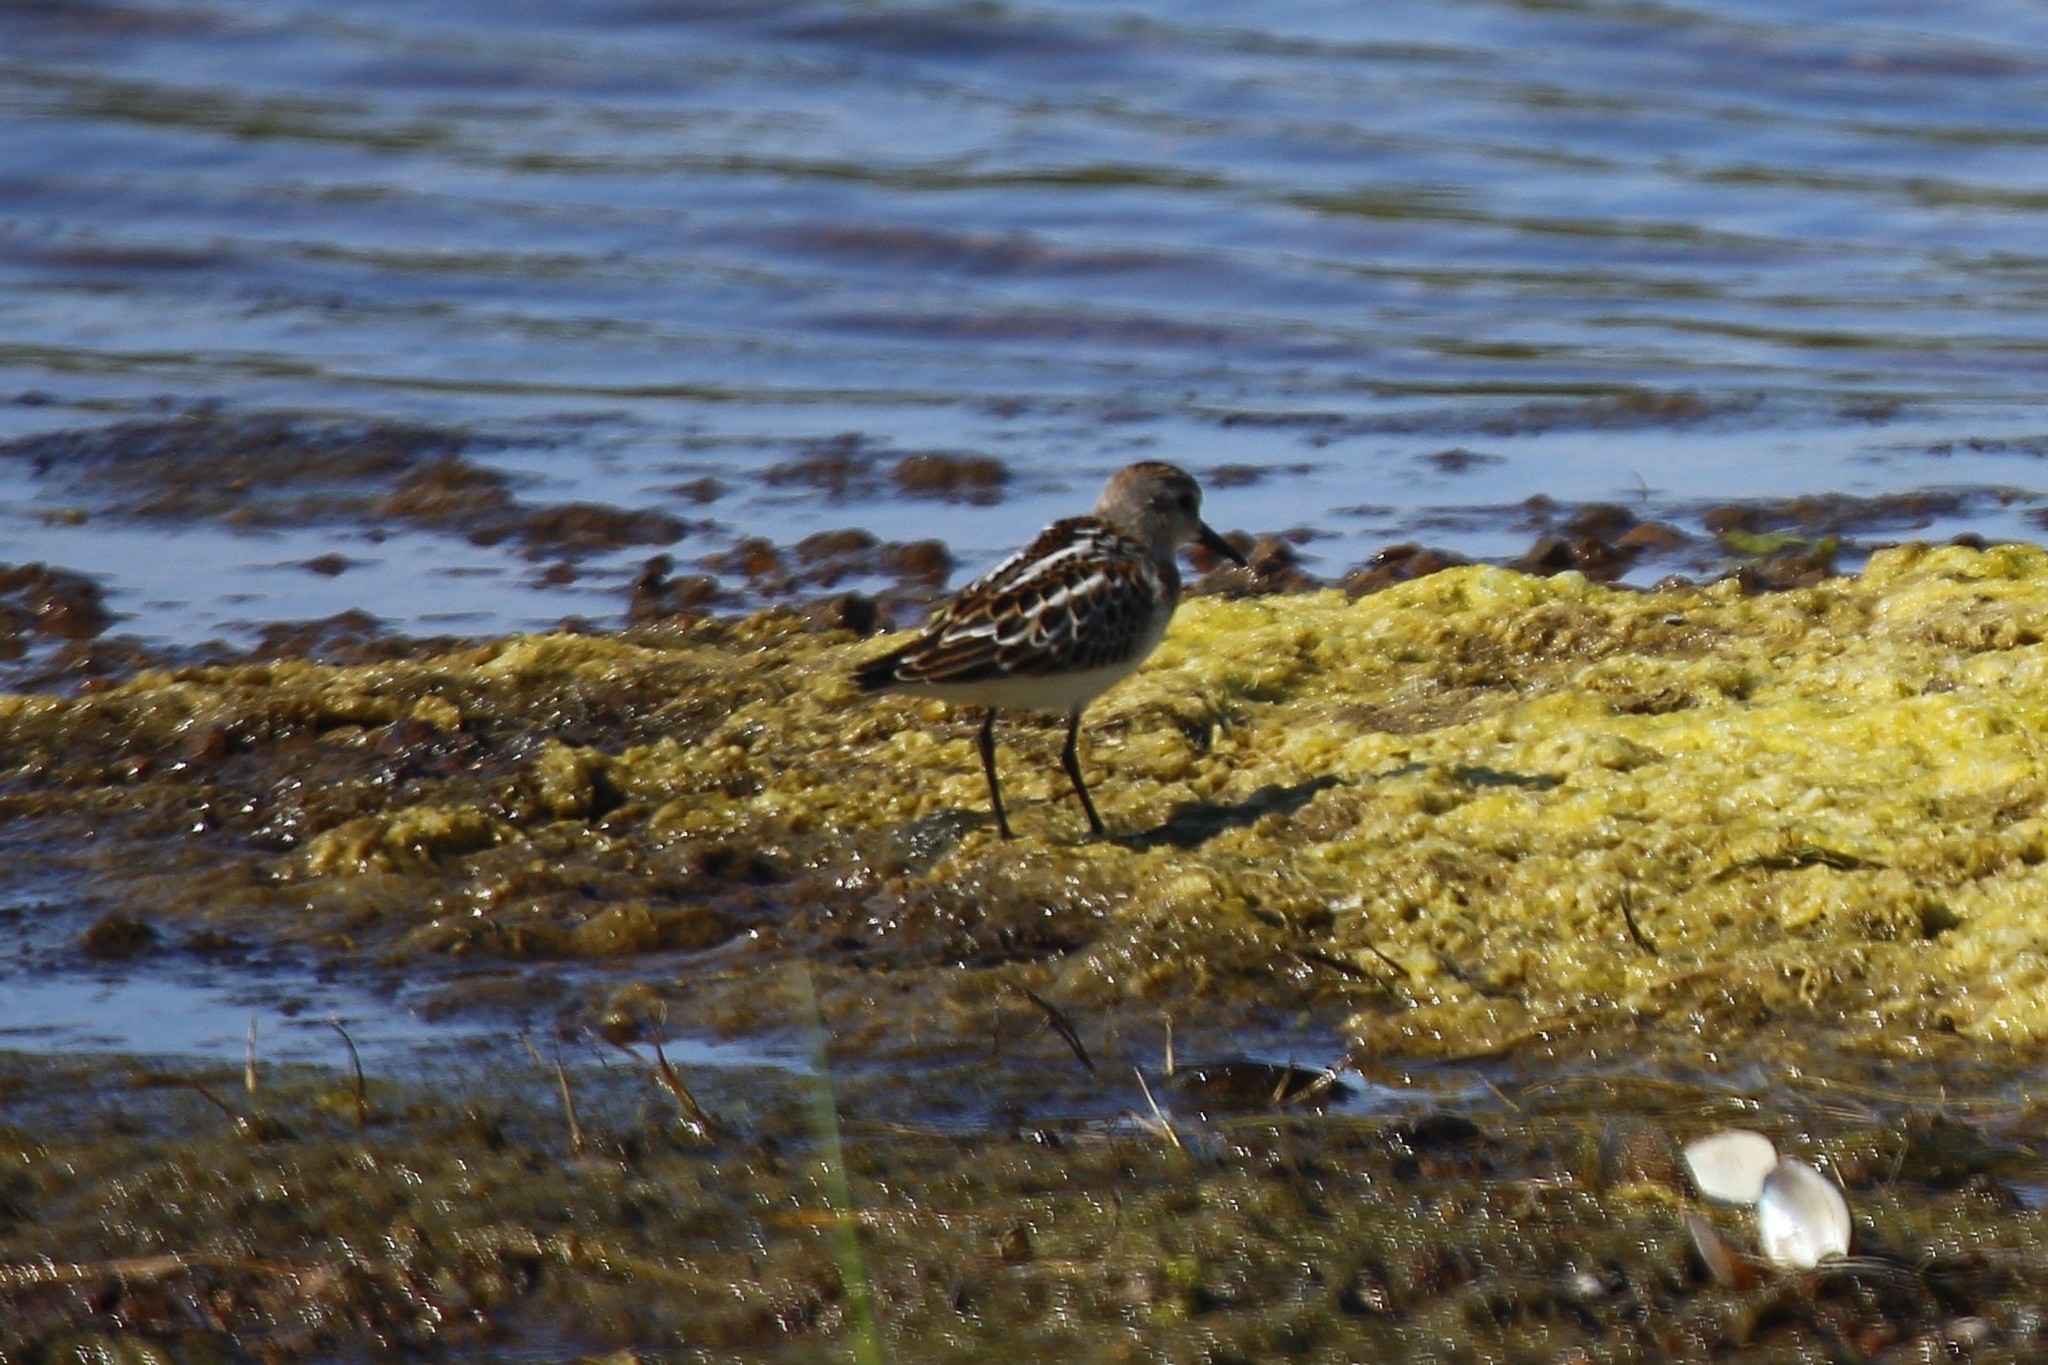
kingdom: Animalia
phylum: Chordata
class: Aves
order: Charadriiformes
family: Scolopacidae
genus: Calidris
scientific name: Calidris minuta
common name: Little stint
